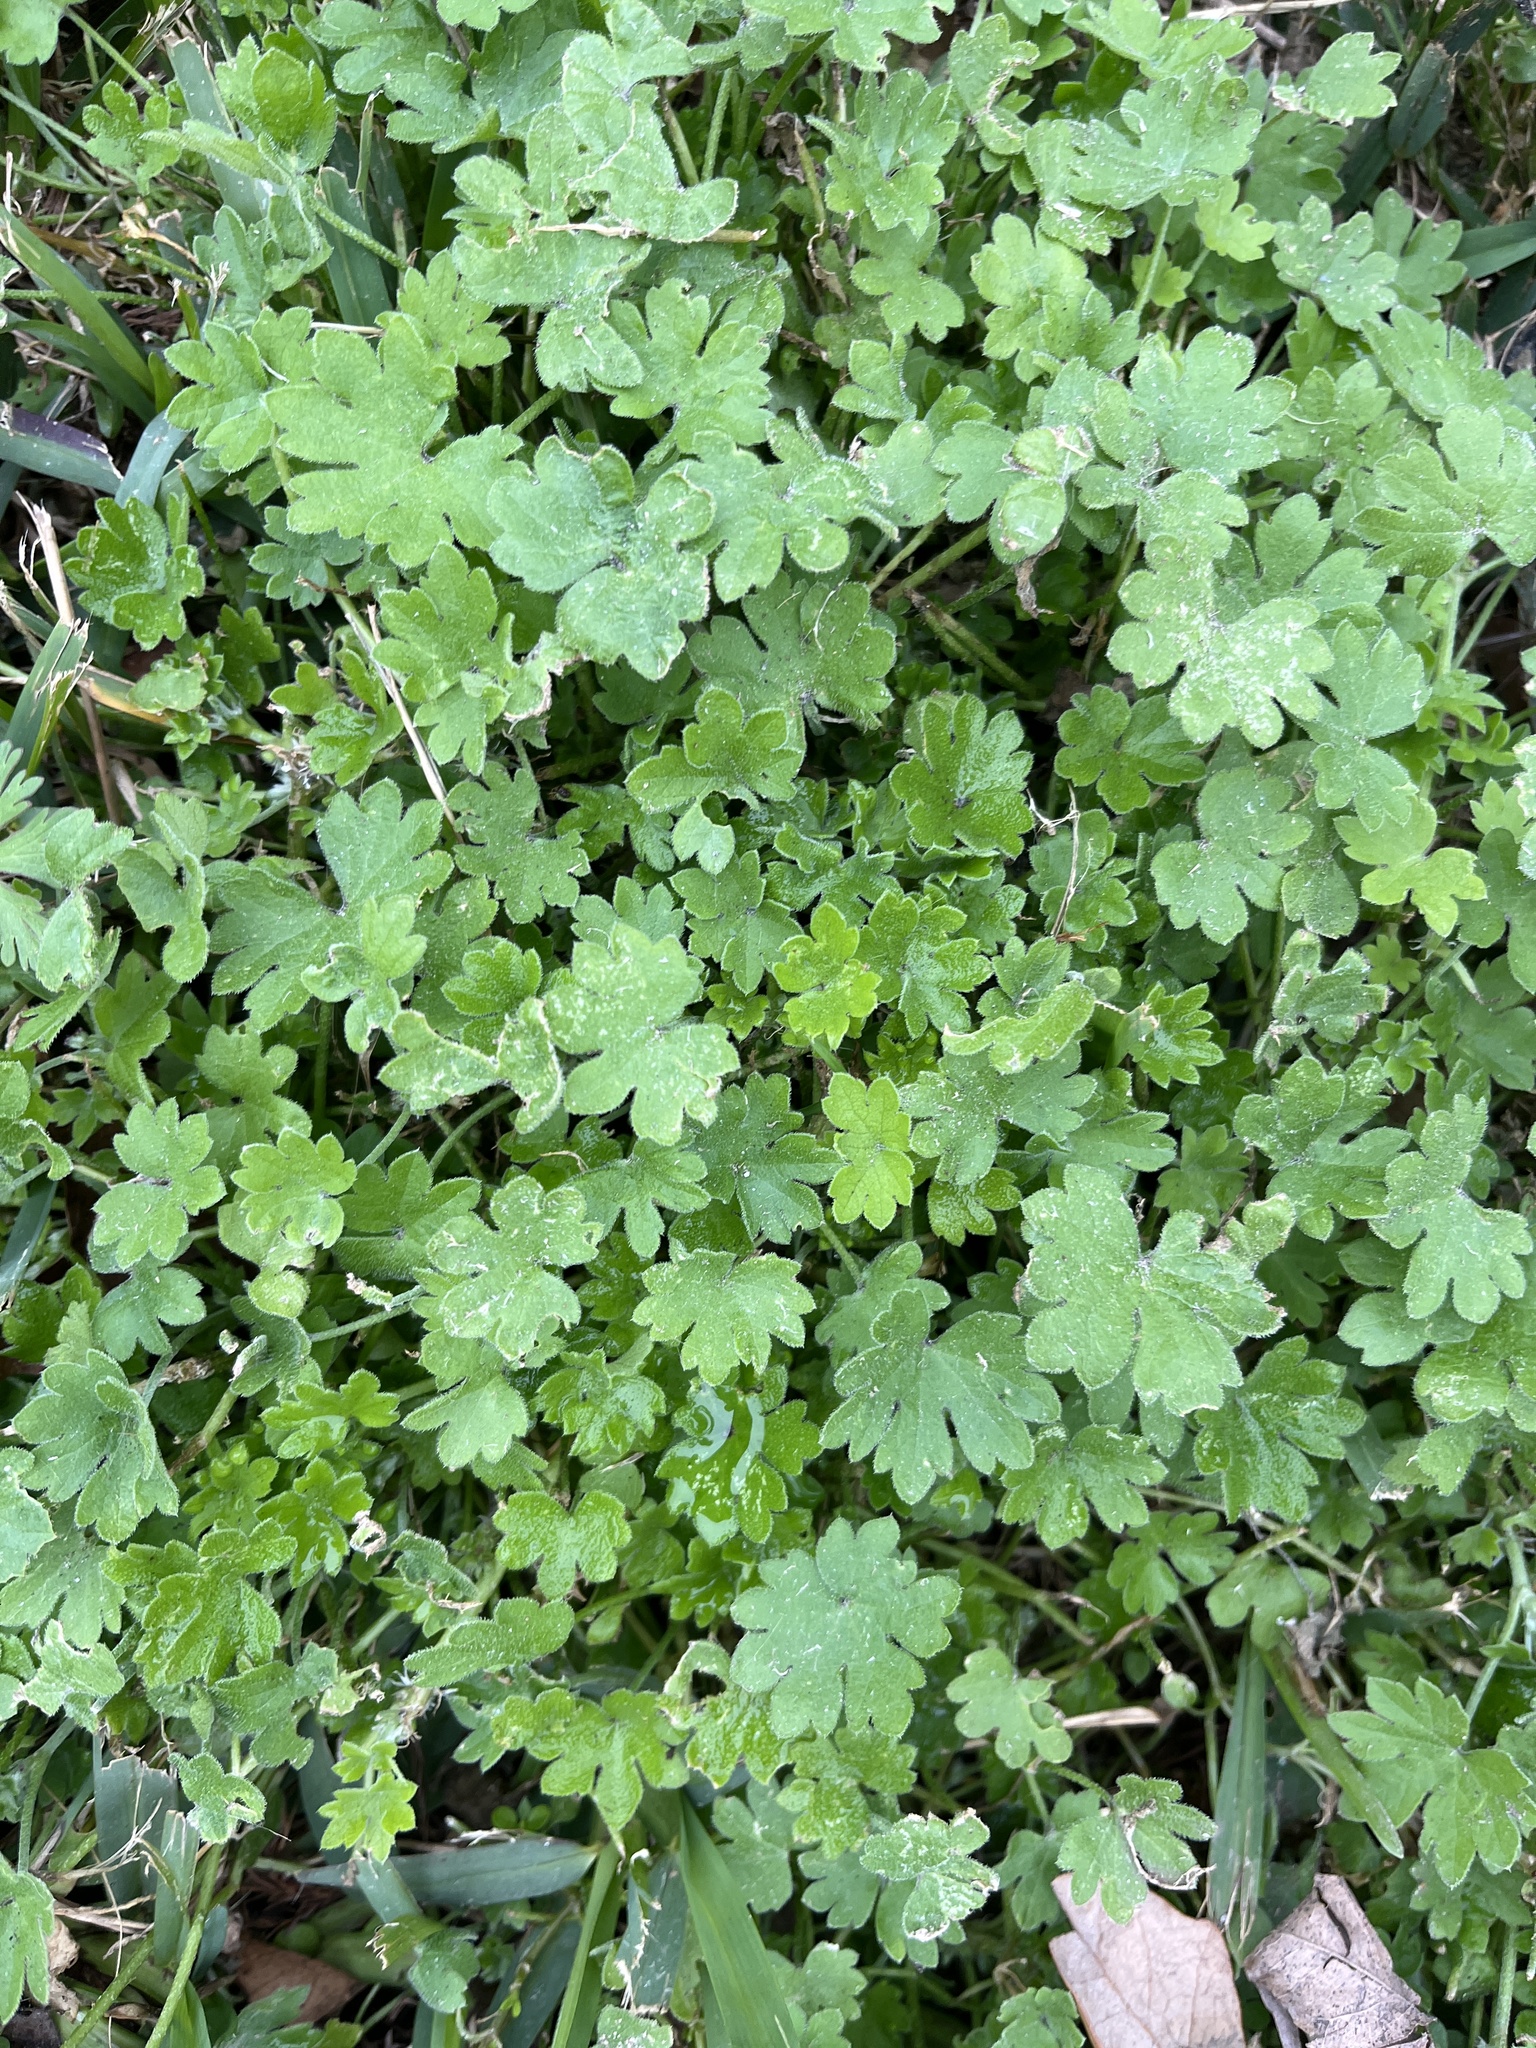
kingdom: Plantae
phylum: Tracheophyta
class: Magnoliopsida
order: Apiales
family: Apiaceae
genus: Bowlesia
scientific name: Bowlesia incana
